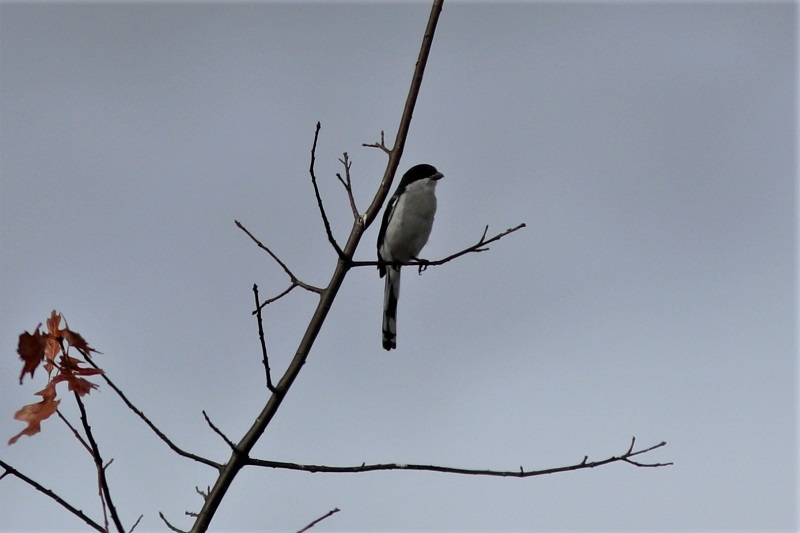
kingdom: Animalia
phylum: Chordata
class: Aves
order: Passeriformes
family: Laniidae
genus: Lanius
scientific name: Lanius collaris
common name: Southern fiscal
